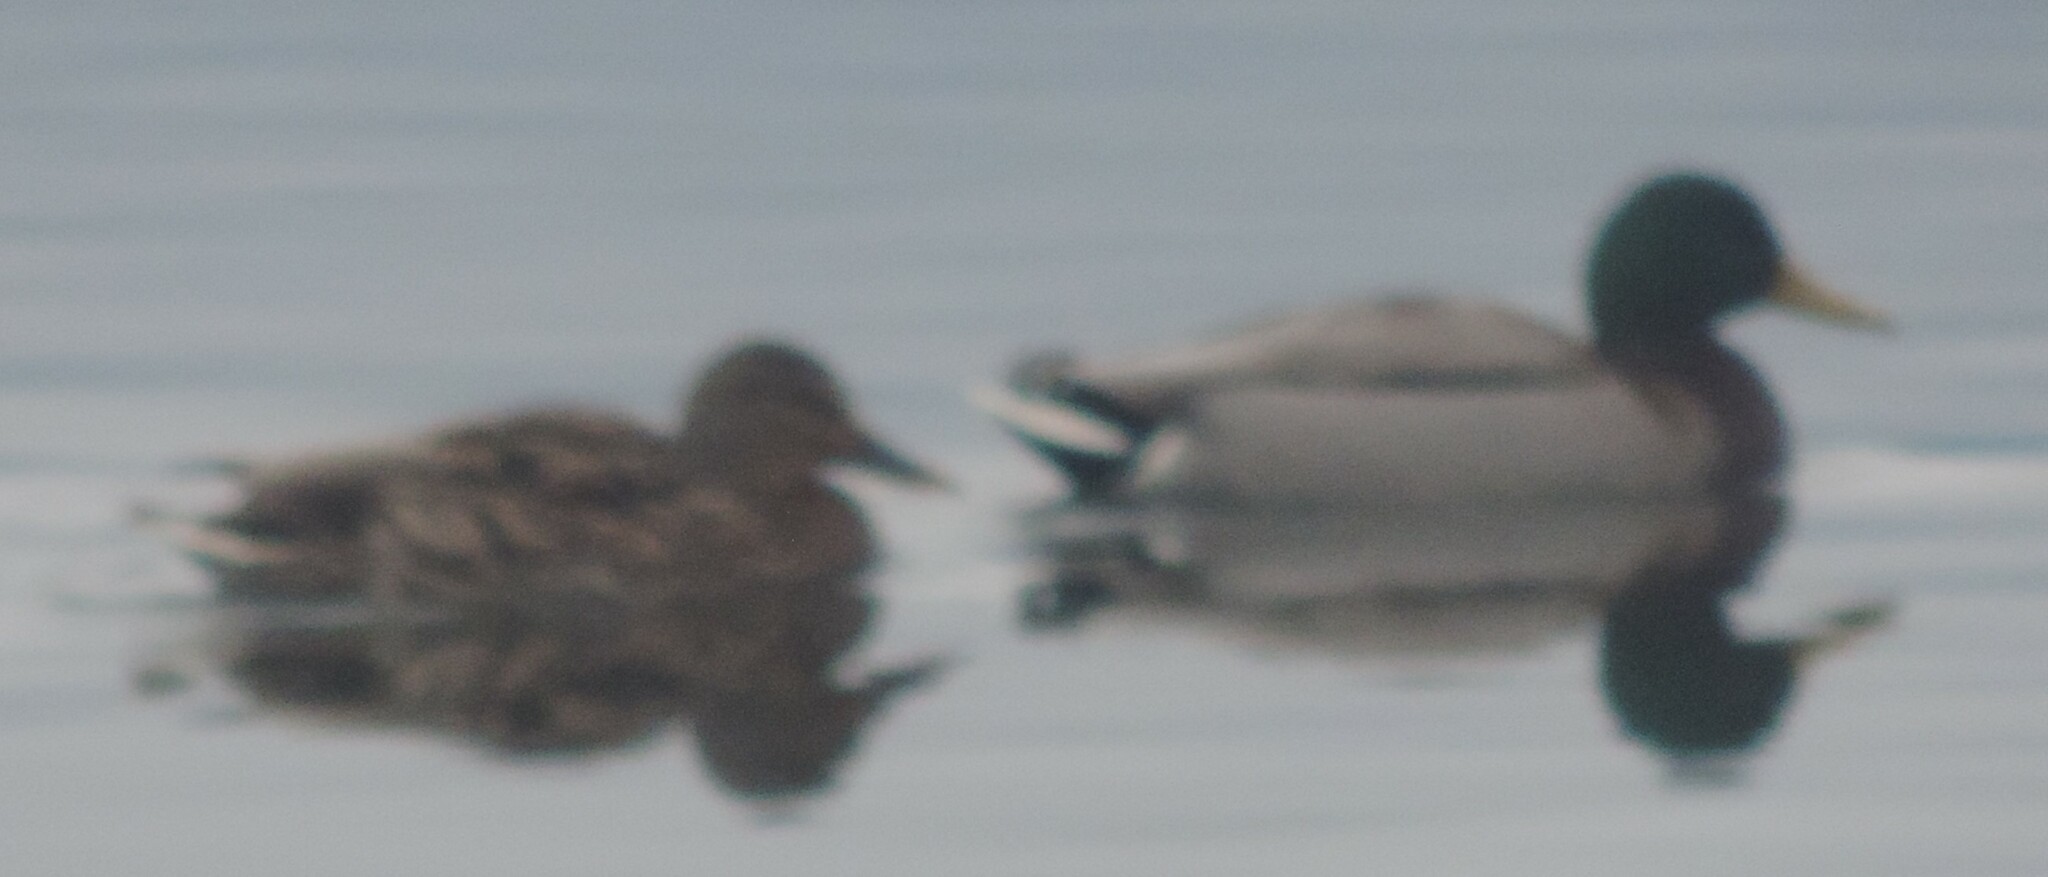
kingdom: Animalia
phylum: Chordata
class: Aves
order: Anseriformes
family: Anatidae
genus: Anas
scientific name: Anas platyrhynchos
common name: Mallard
